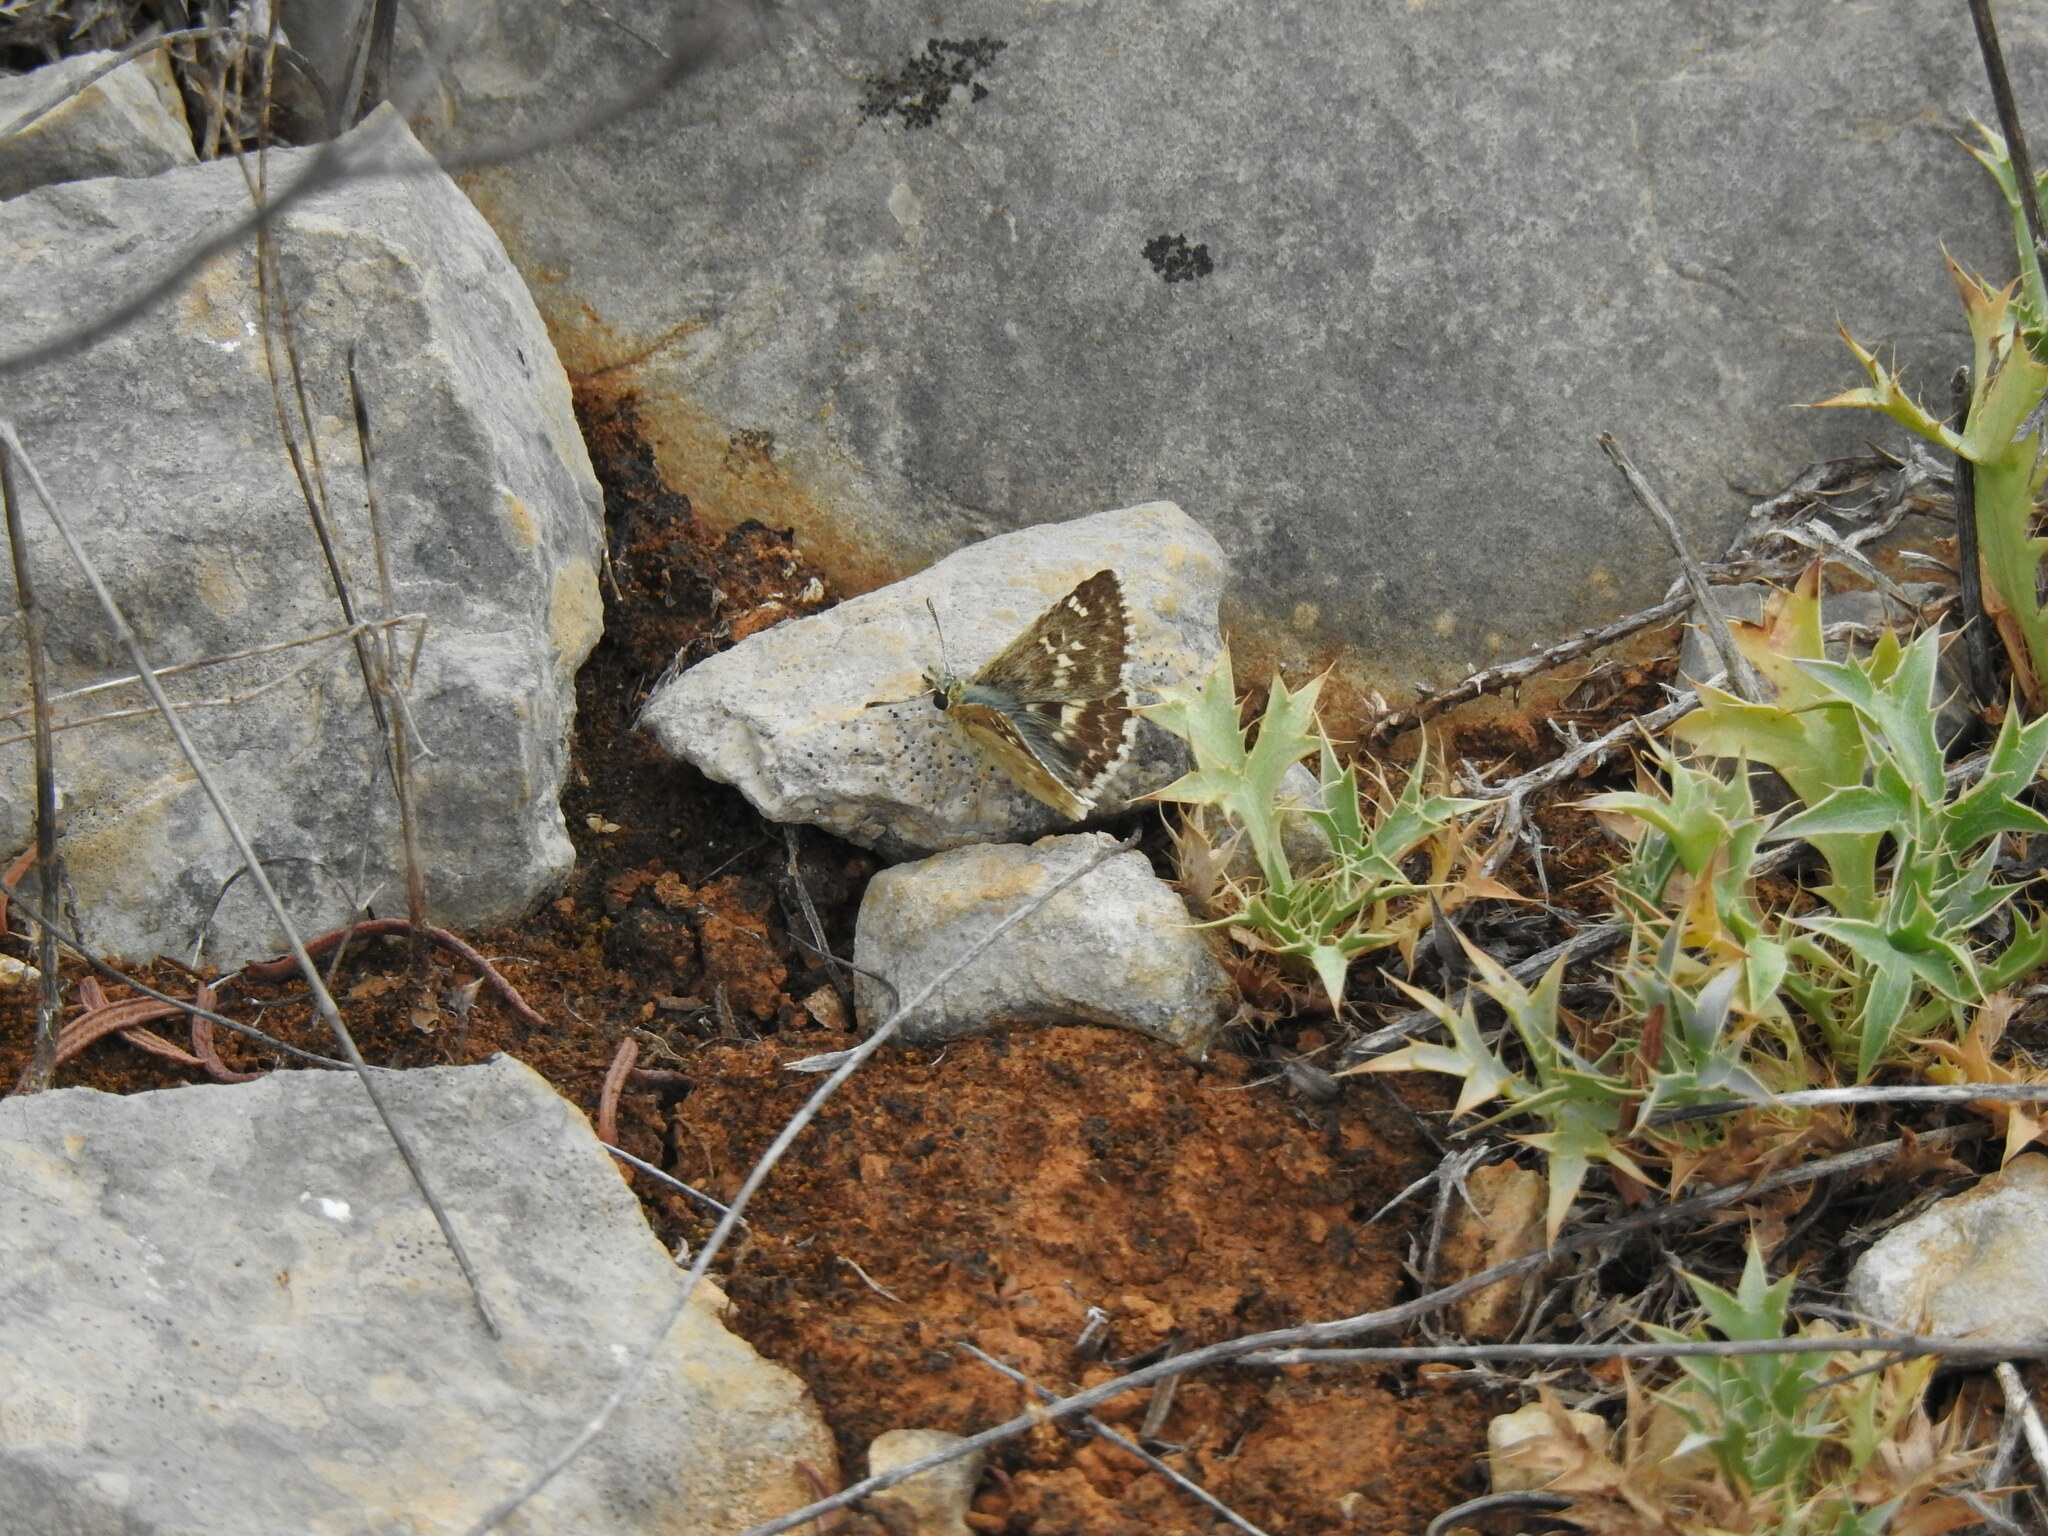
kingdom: Animalia
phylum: Arthropoda
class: Insecta
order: Lepidoptera
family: Hesperiidae
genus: Syrichtus
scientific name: Syrichtus Muschampia proto
